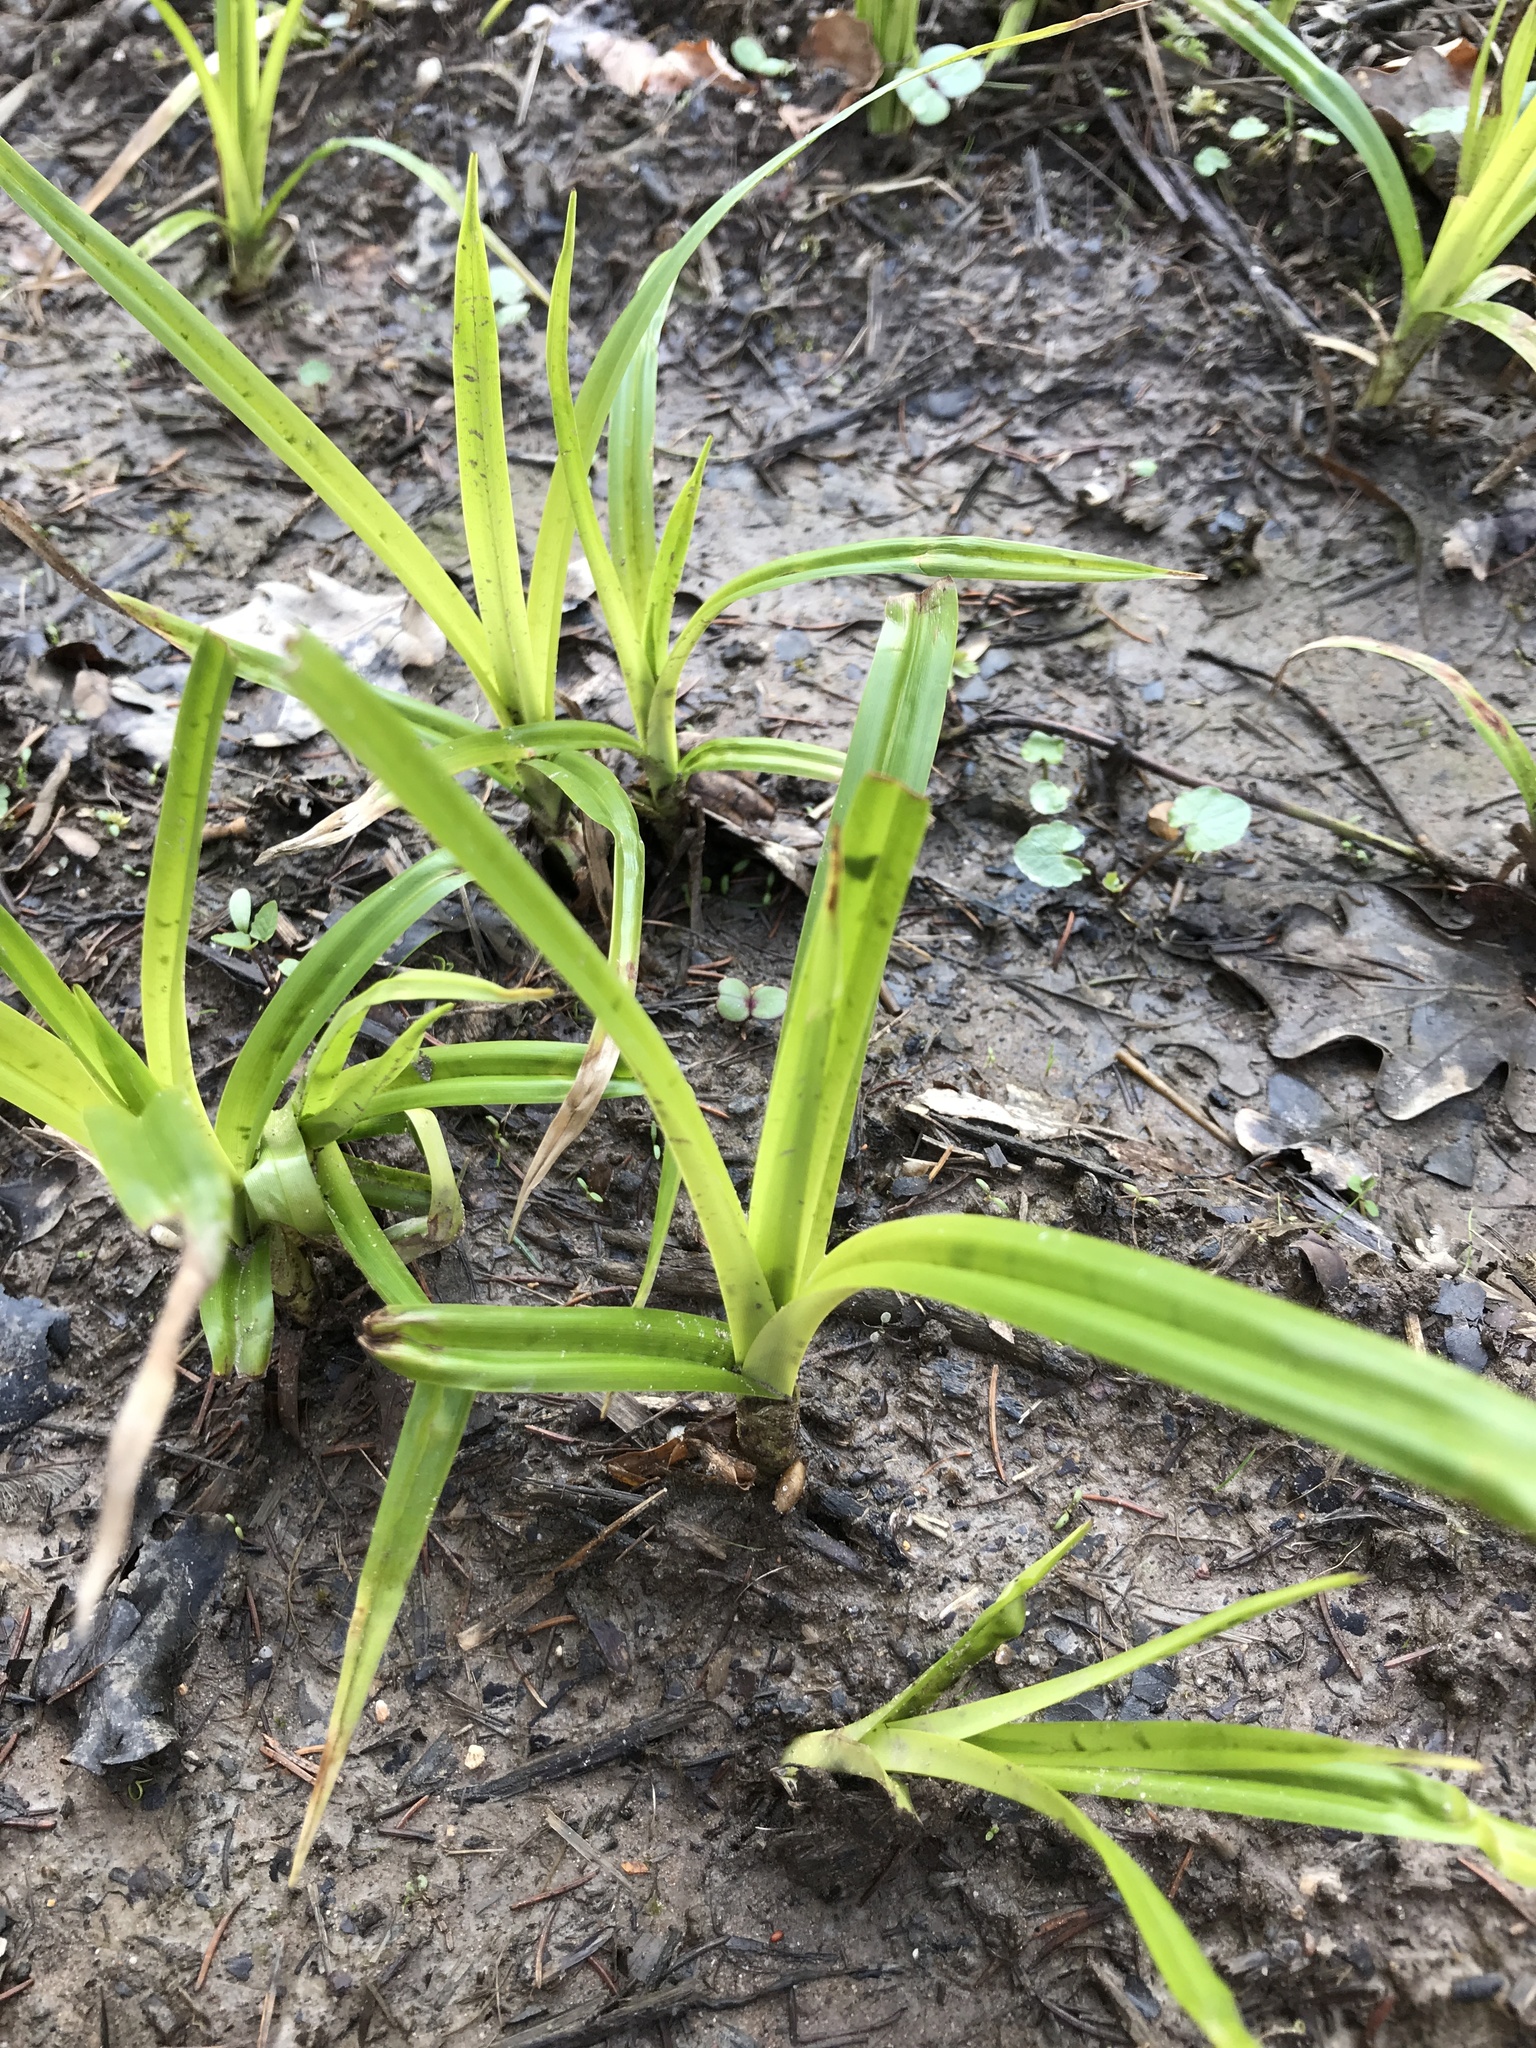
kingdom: Plantae
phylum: Tracheophyta
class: Liliopsida
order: Poales
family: Cyperaceae
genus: Scirpus
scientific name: Scirpus sylvaticus
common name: Wood club-rush
